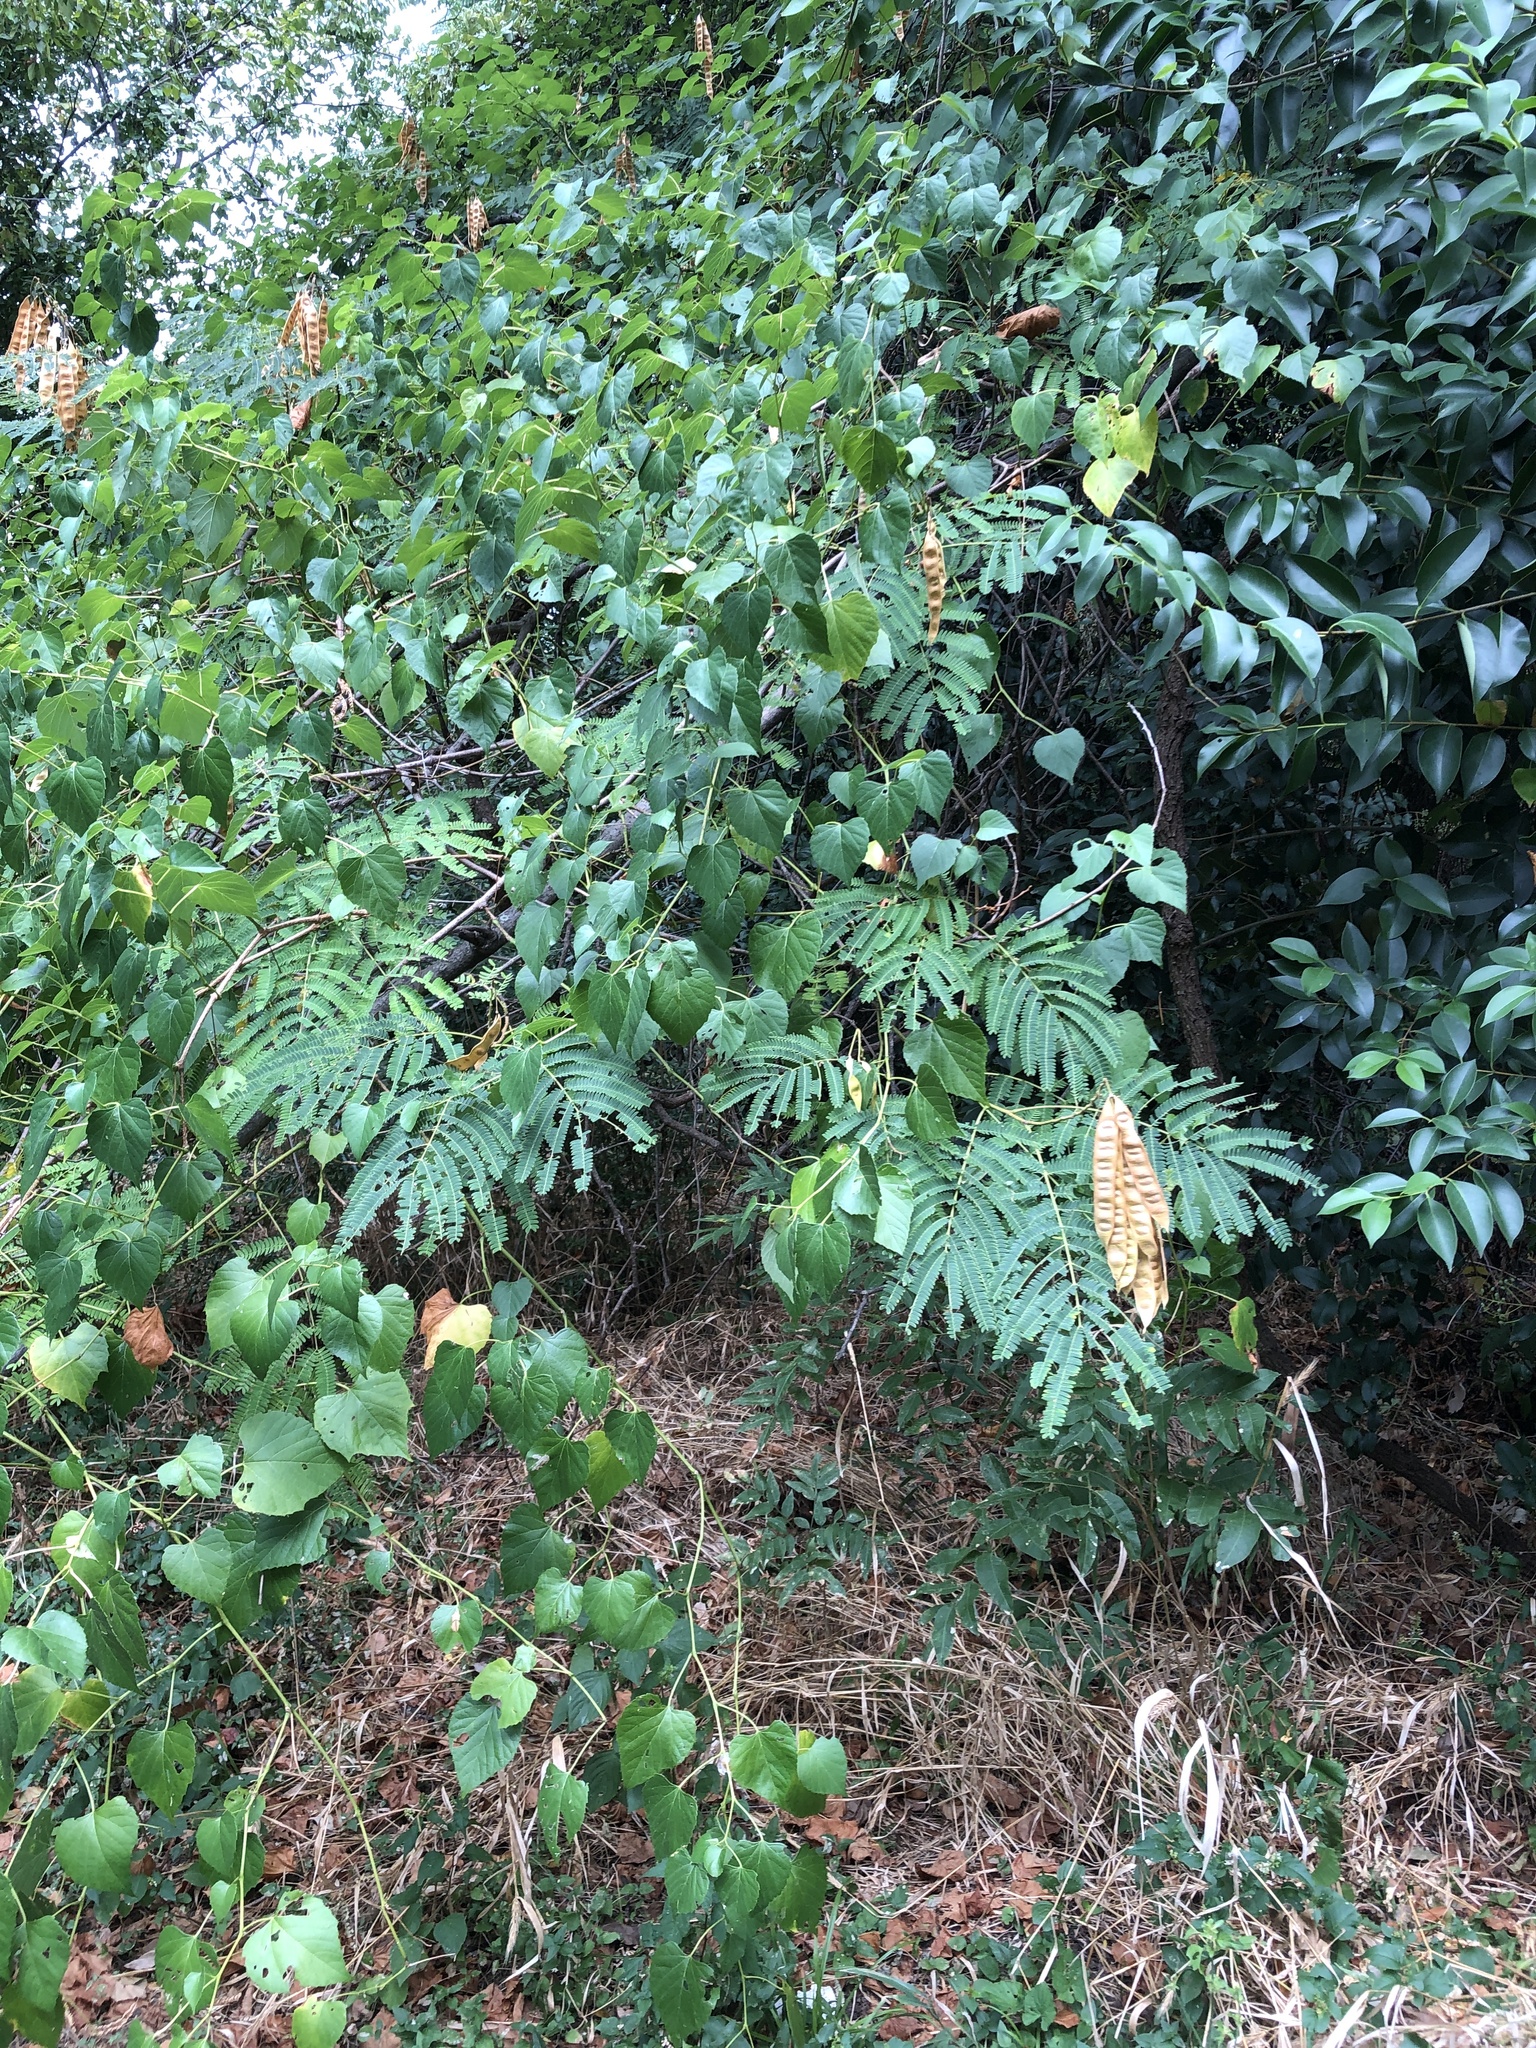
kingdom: Plantae
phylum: Tracheophyta
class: Magnoliopsida
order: Fabales
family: Fabaceae
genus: Albizia
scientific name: Albizia julibrissin
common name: Silktree
